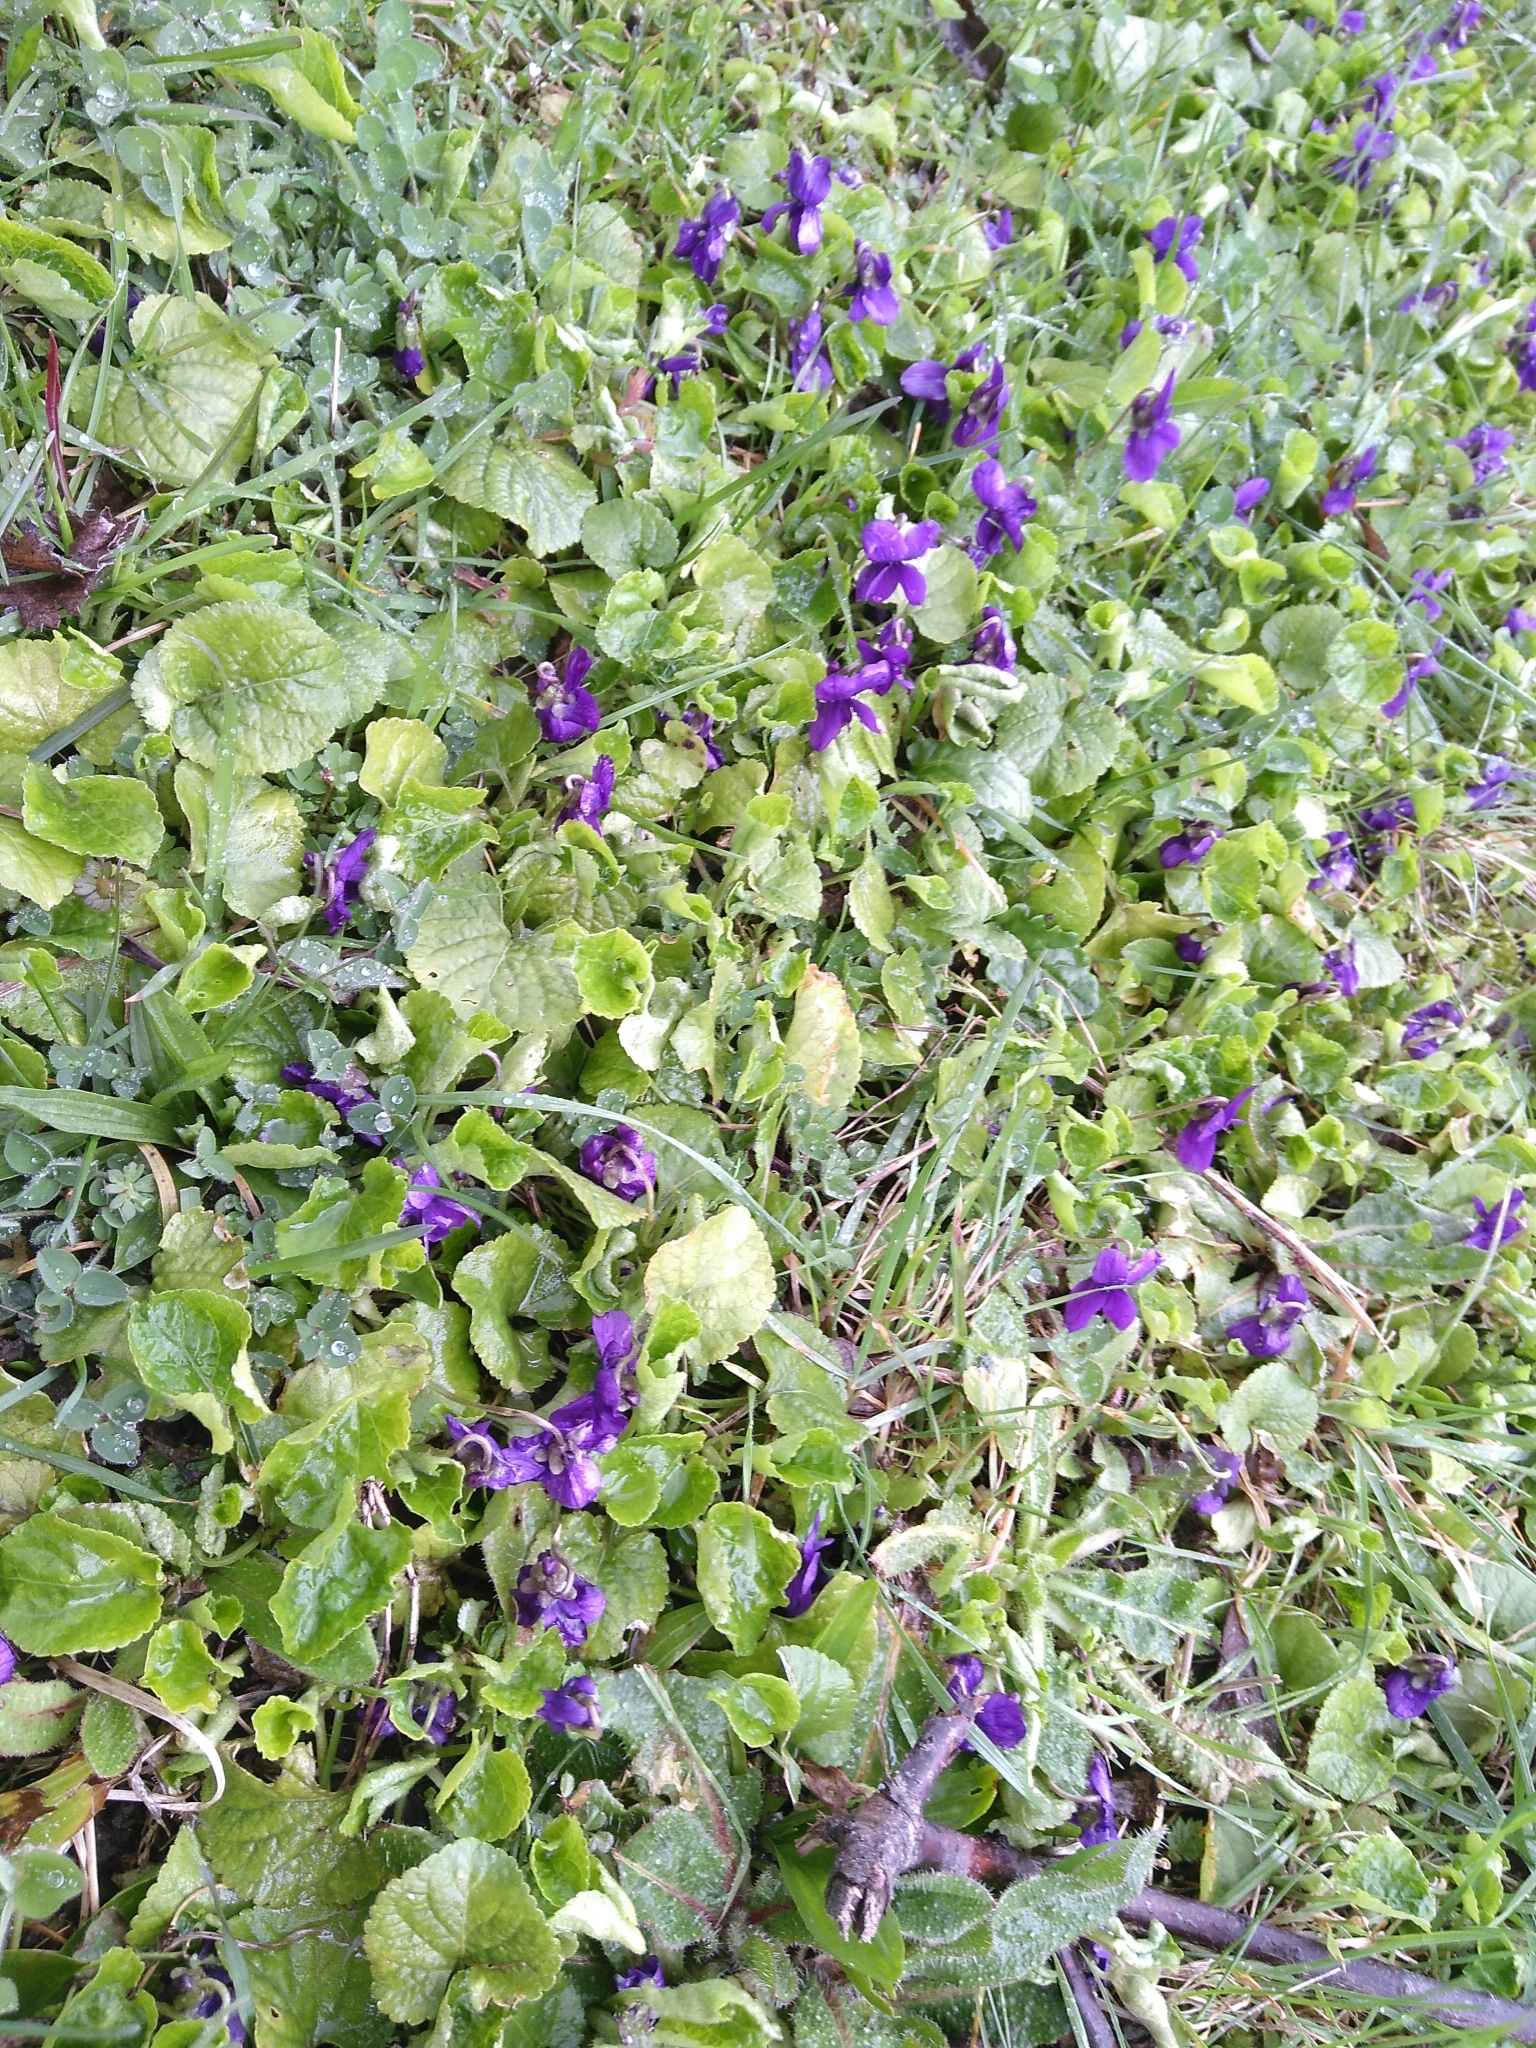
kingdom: Plantae
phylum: Tracheophyta
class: Magnoliopsida
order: Malpighiales
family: Violaceae
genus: Viola
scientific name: Viola odorata
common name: Sweet violet
